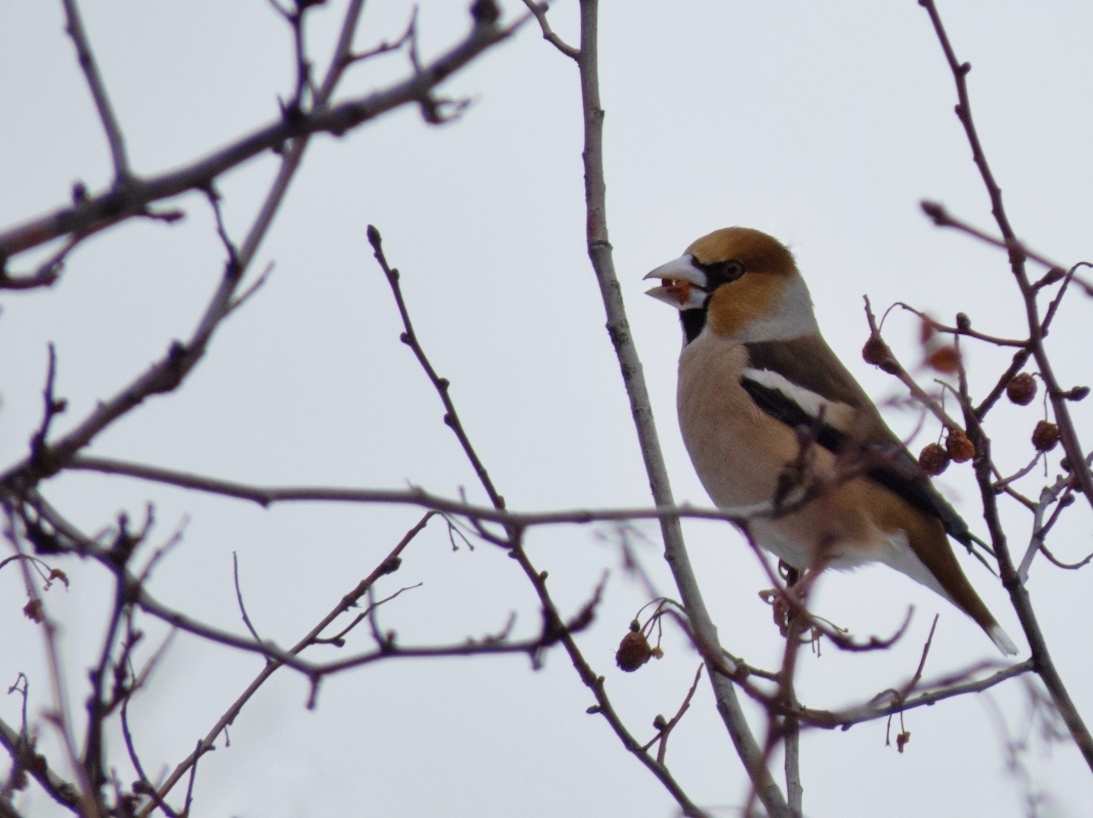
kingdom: Animalia
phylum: Chordata
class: Aves
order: Passeriformes
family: Fringillidae
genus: Coccothraustes
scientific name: Coccothraustes coccothraustes
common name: Hawfinch
